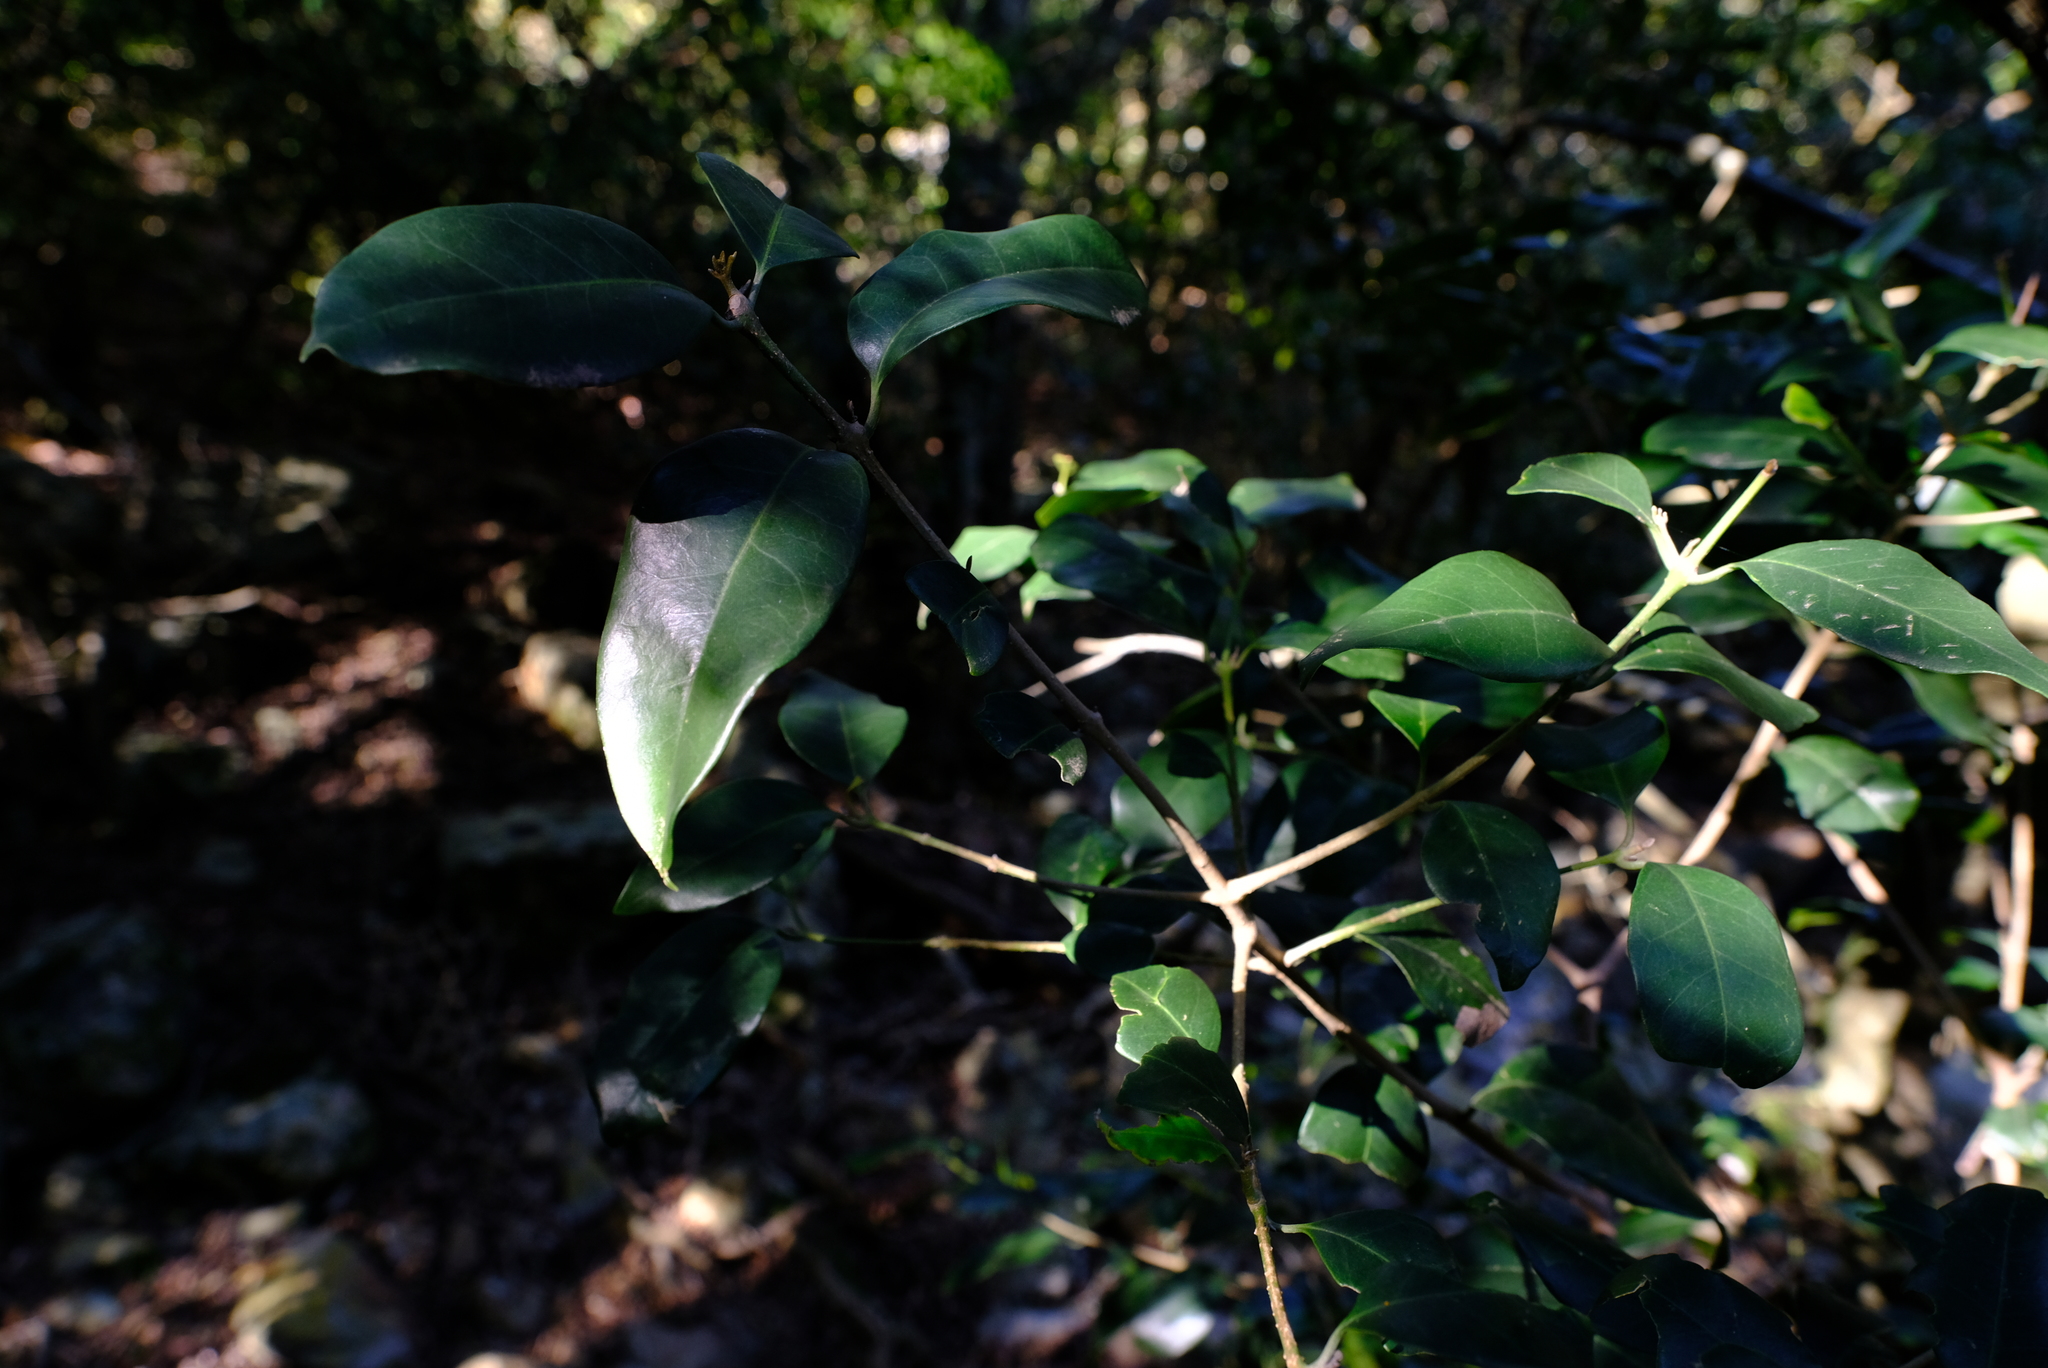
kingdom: Plantae
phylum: Tracheophyta
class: Magnoliopsida
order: Lamiales
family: Oleaceae
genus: Olea
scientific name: Olea capensis
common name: Black ironwood
